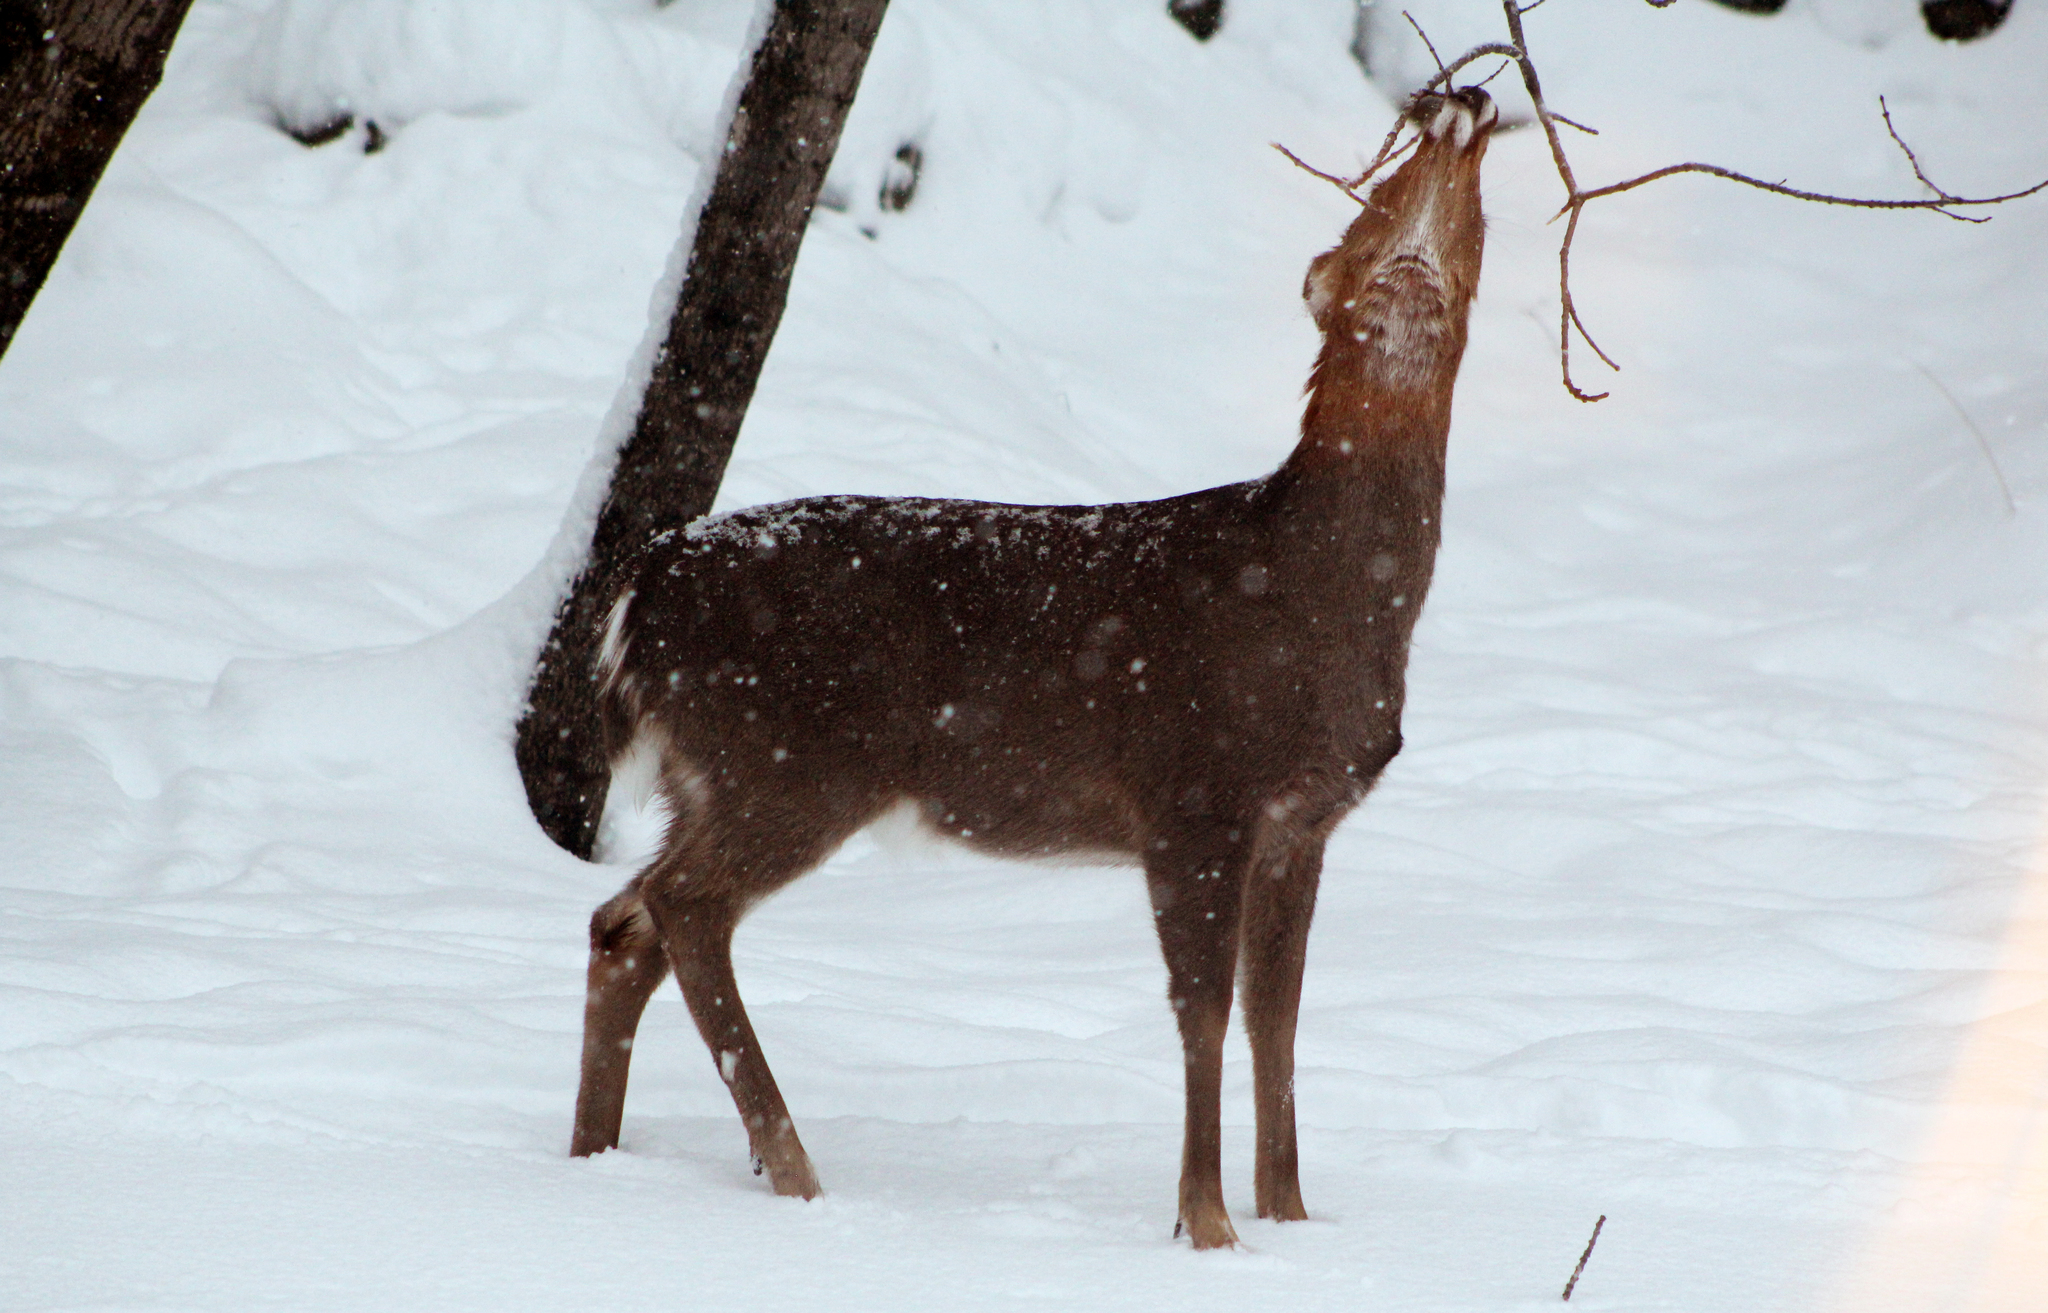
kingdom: Animalia
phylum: Chordata
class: Mammalia
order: Artiodactyla
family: Cervidae
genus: Odocoileus
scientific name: Odocoileus virginianus
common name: White-tailed deer
